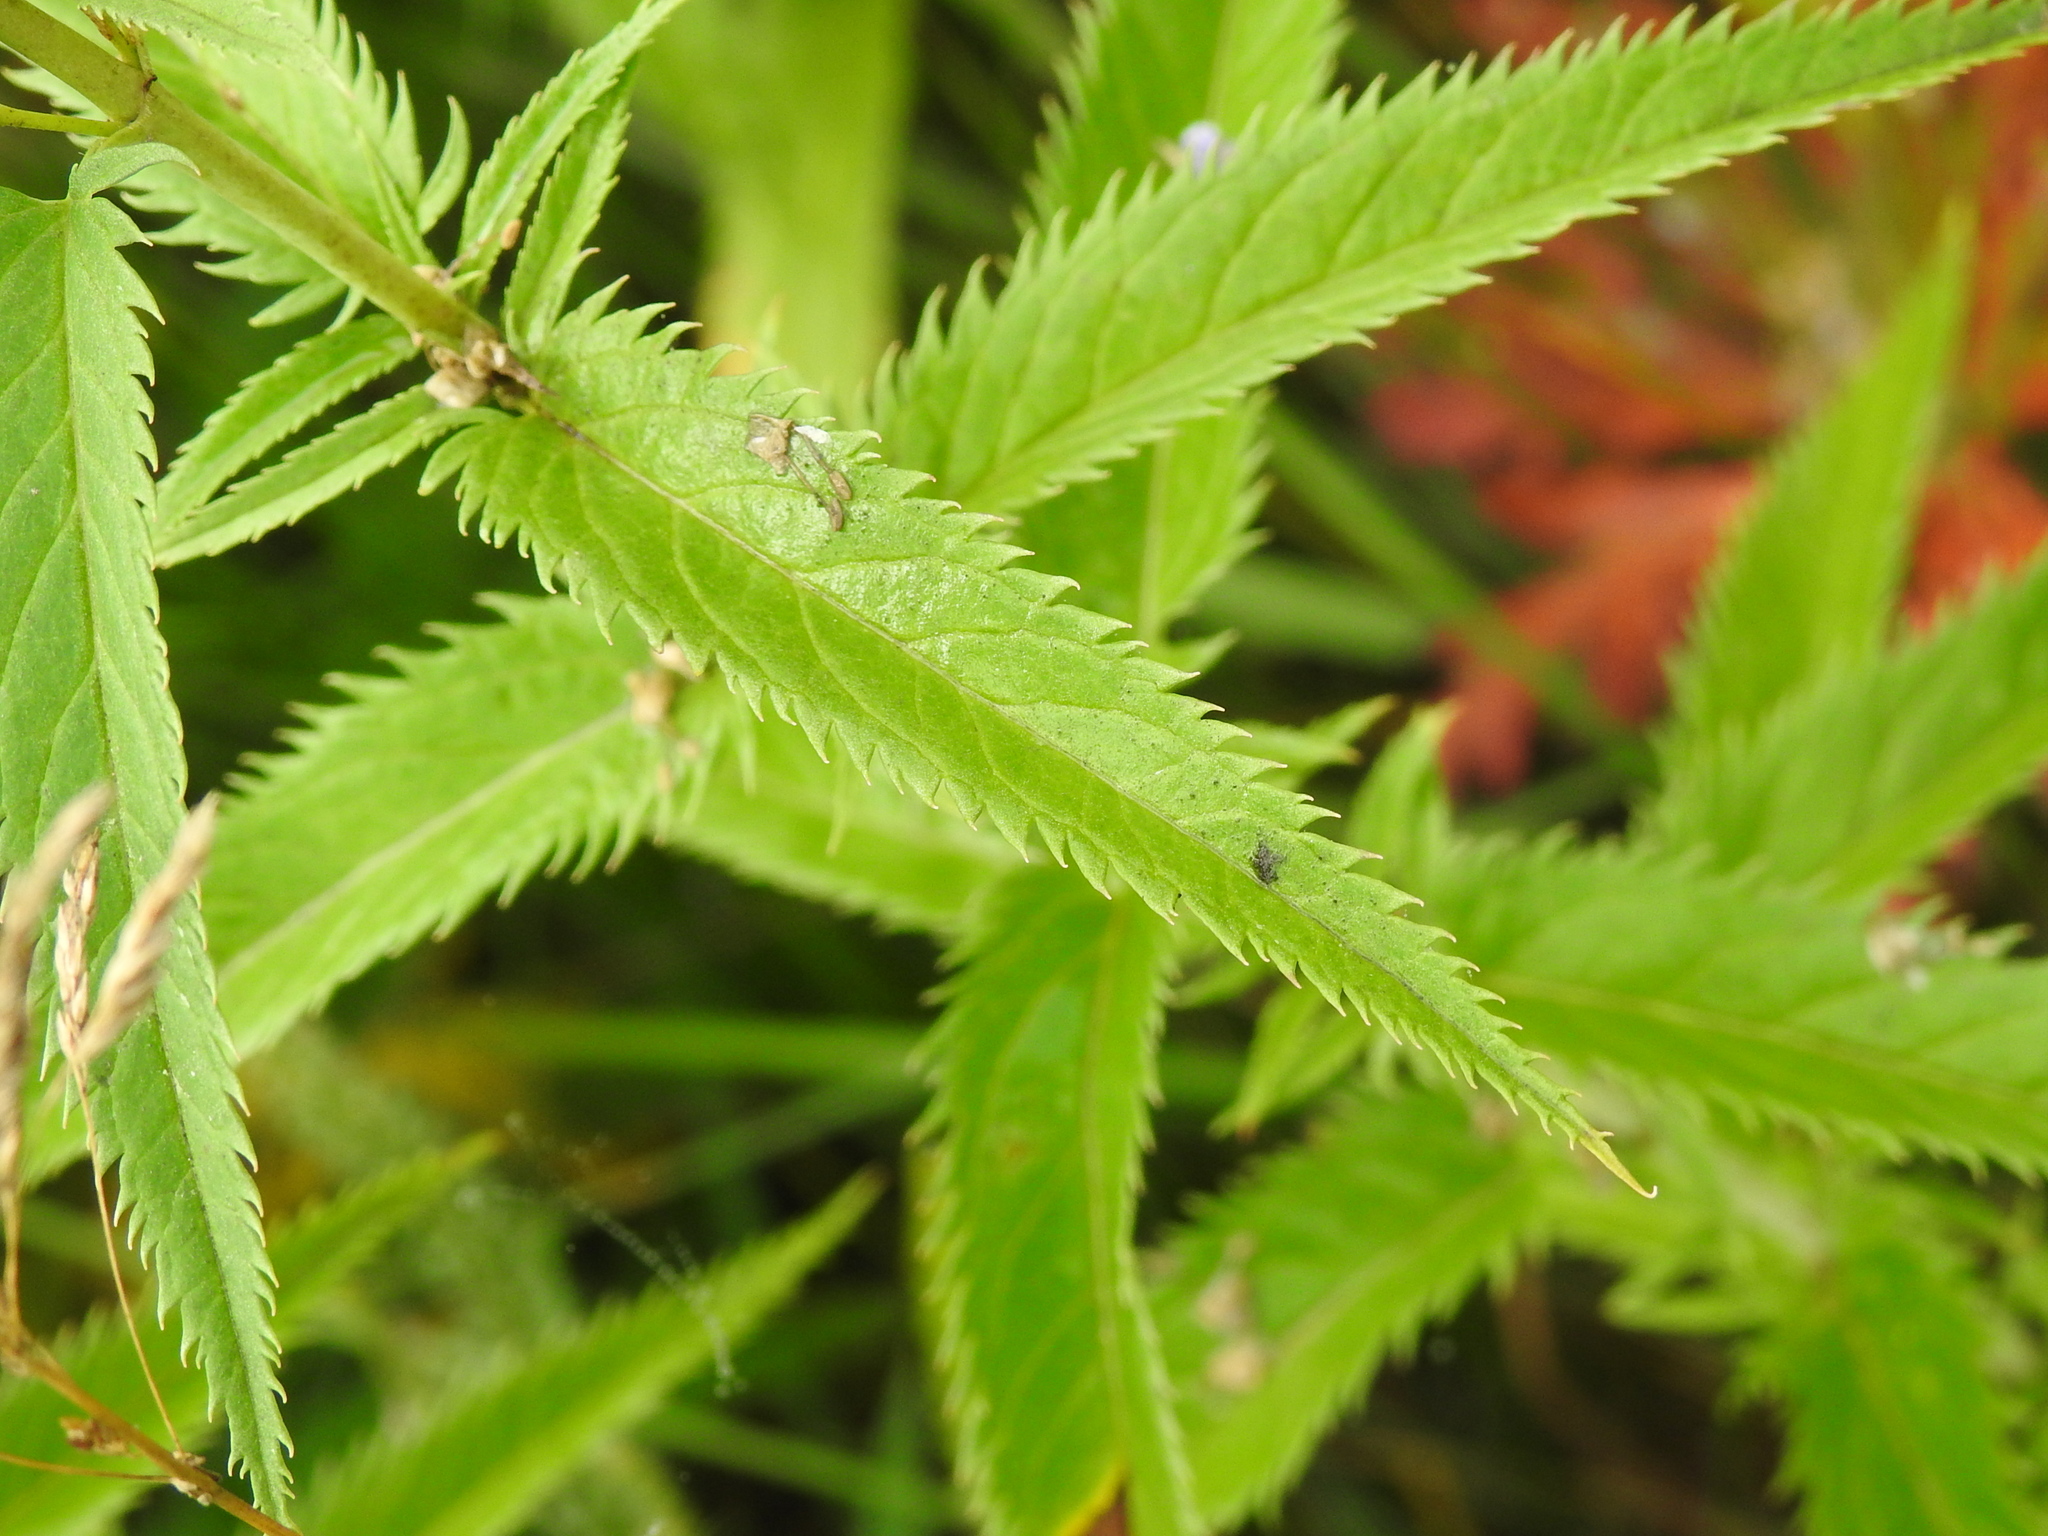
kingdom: Plantae
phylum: Tracheophyta
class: Magnoliopsida
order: Lamiales
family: Plantaginaceae
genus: Veronica
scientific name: Veronica longifolia
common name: Garden speedwell
